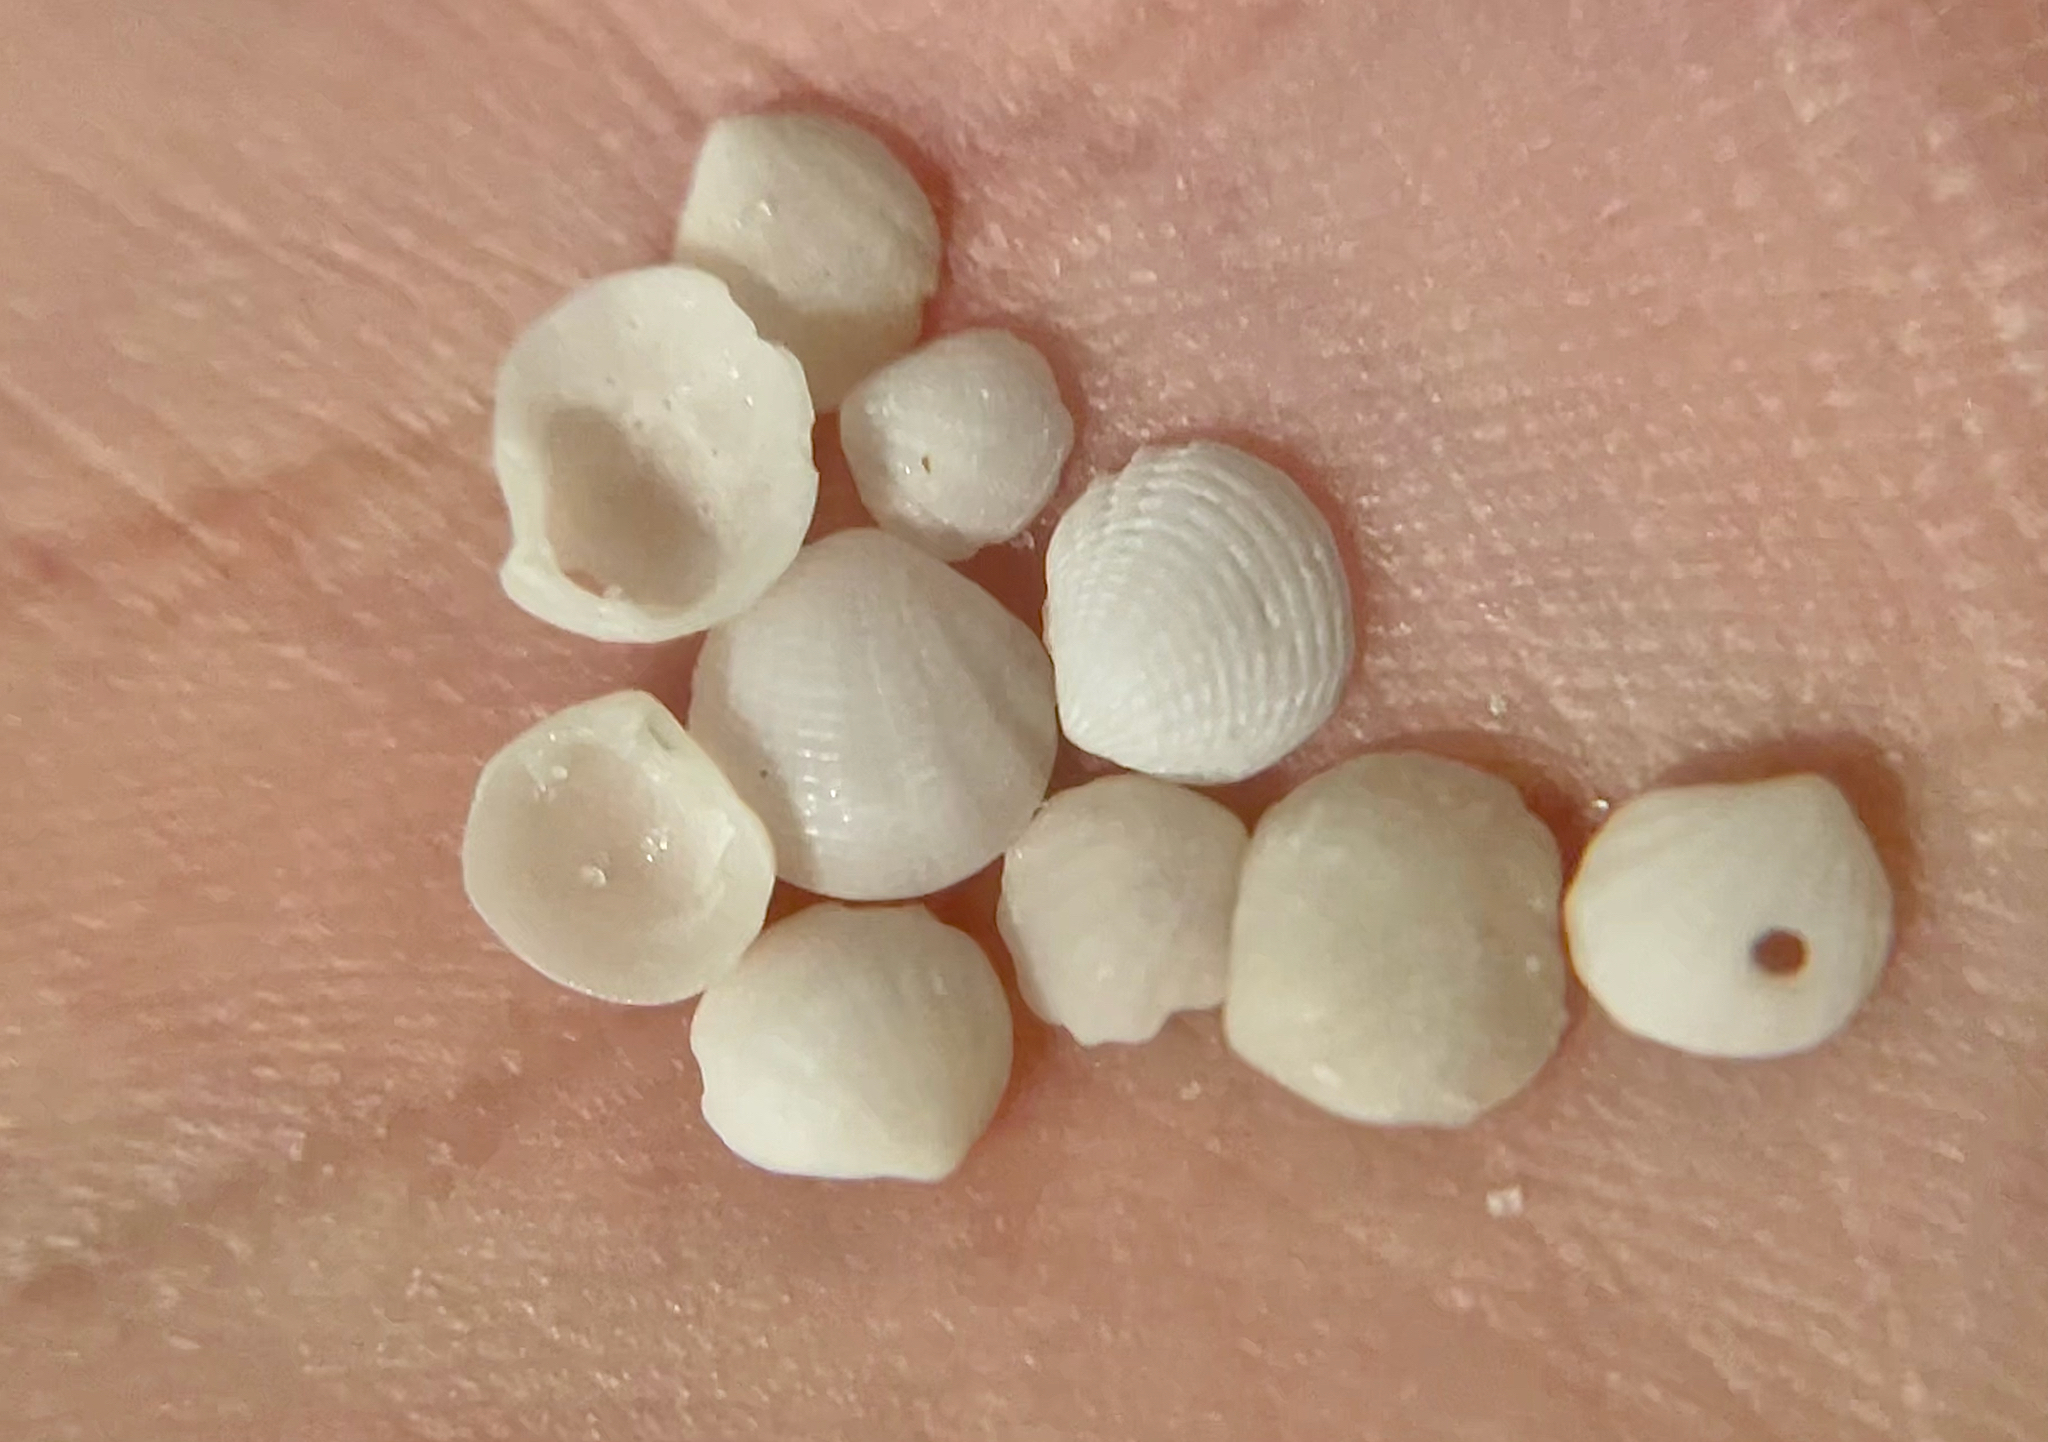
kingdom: Animalia
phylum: Mollusca
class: Bivalvia
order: Lucinida
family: Lucinidae
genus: Radiolucina
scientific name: Radiolucina amianta
